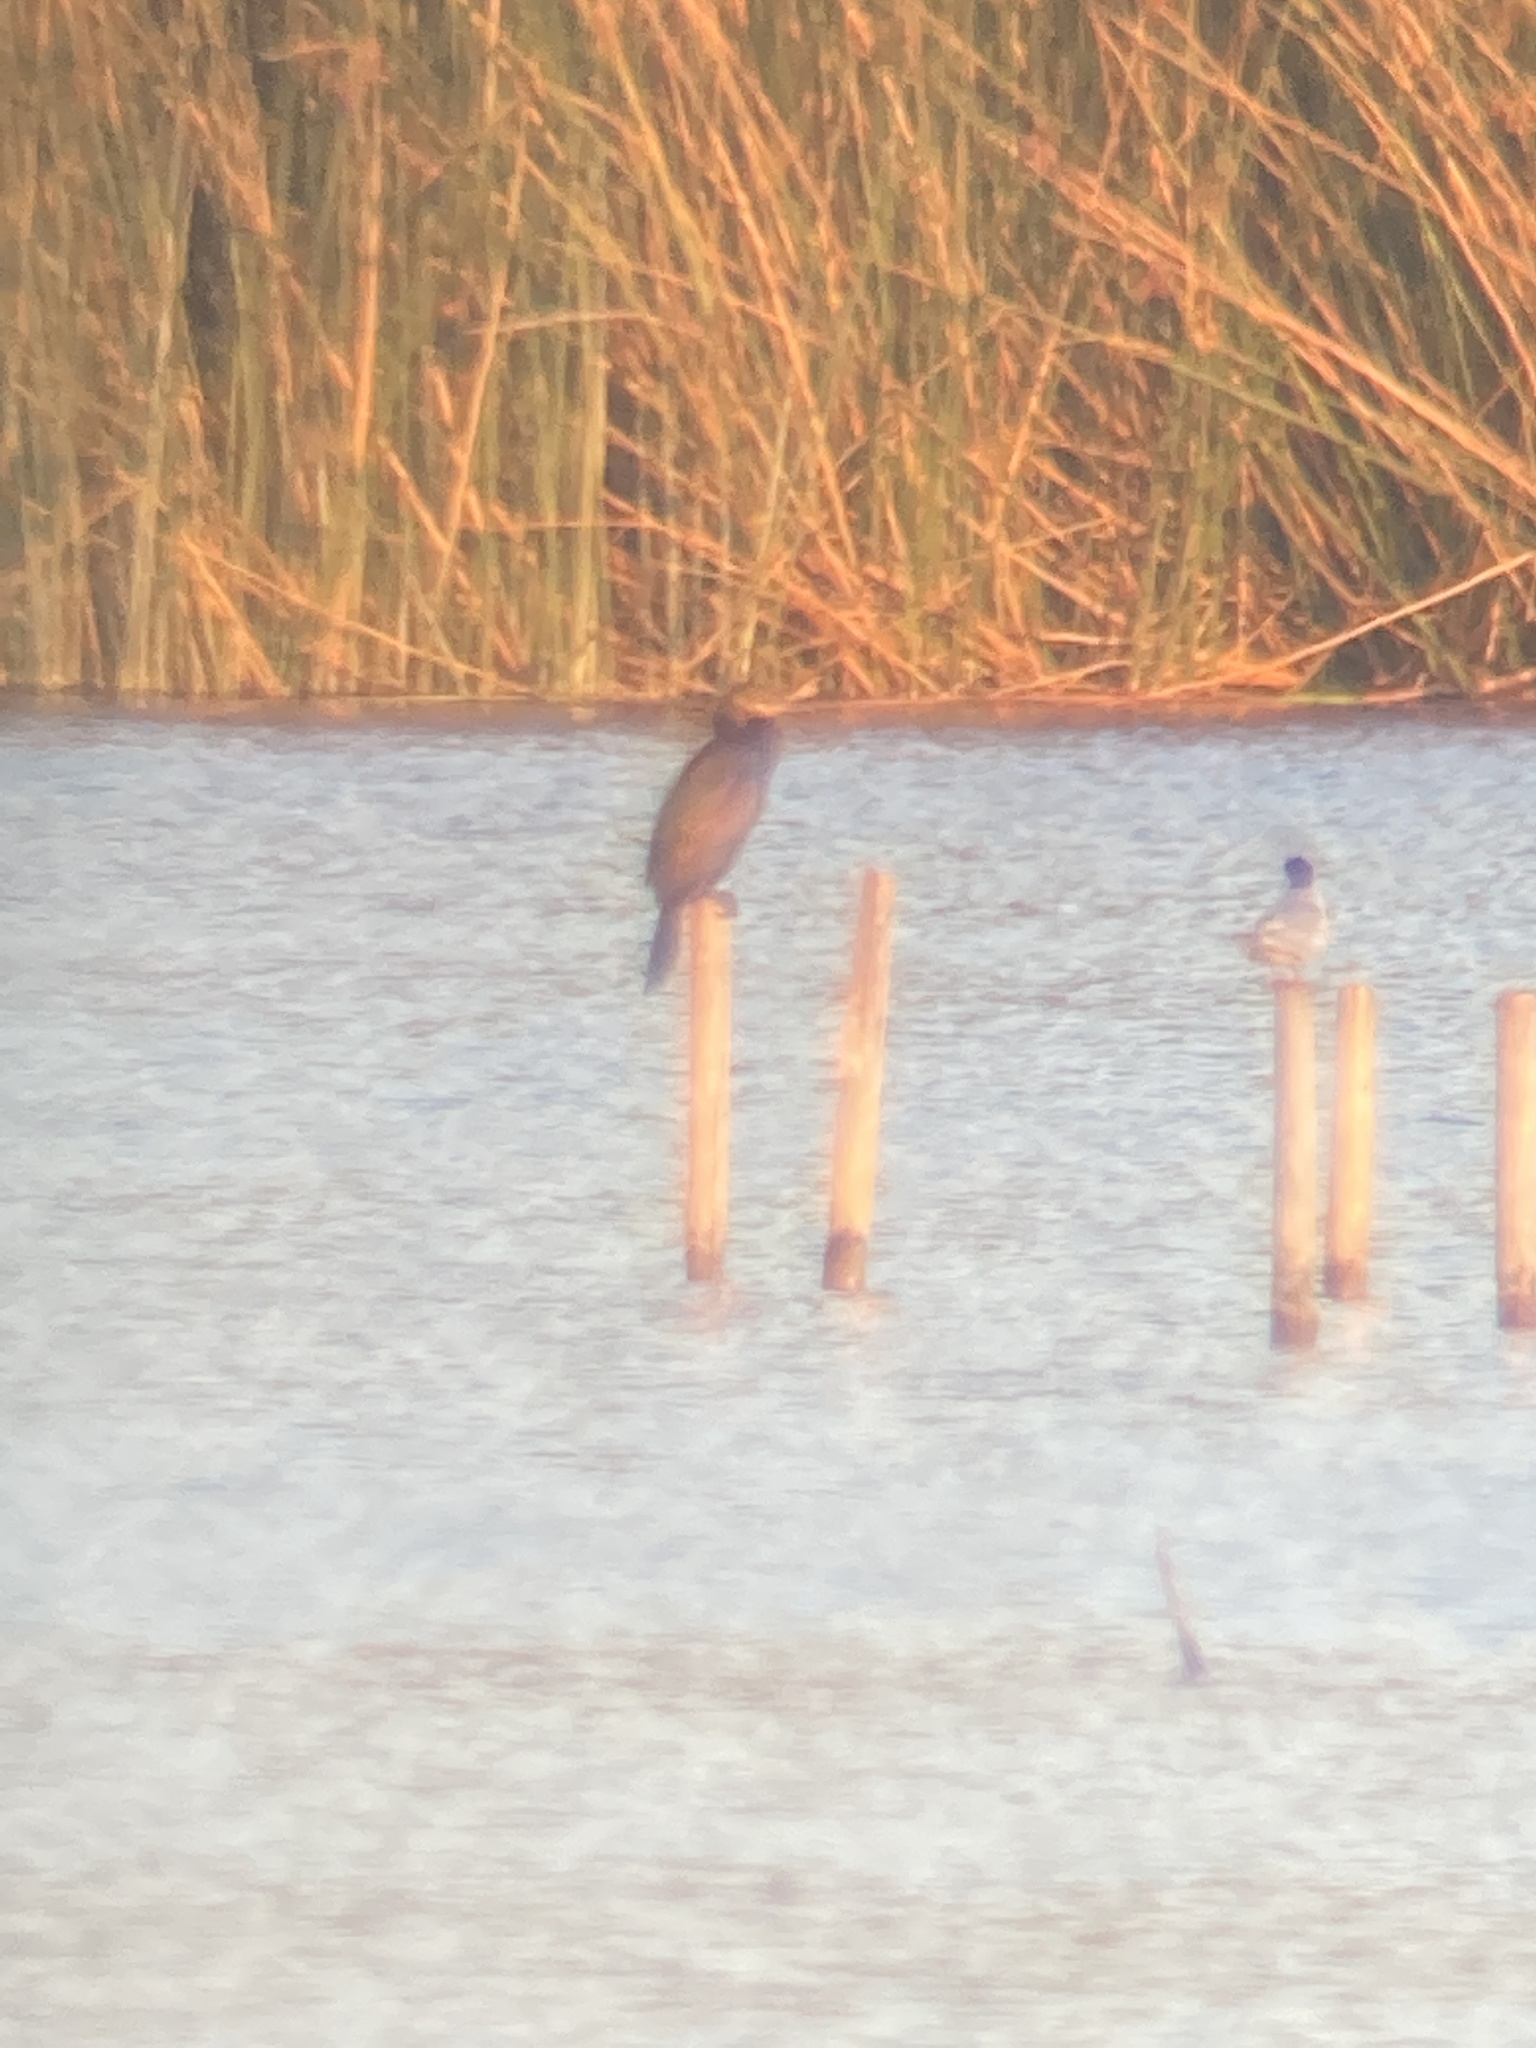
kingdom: Animalia
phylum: Chordata
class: Aves
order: Suliformes
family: Phalacrocoracidae
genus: Phalacrocorax
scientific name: Phalacrocorax brasilianus
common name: Neotropic cormorant
